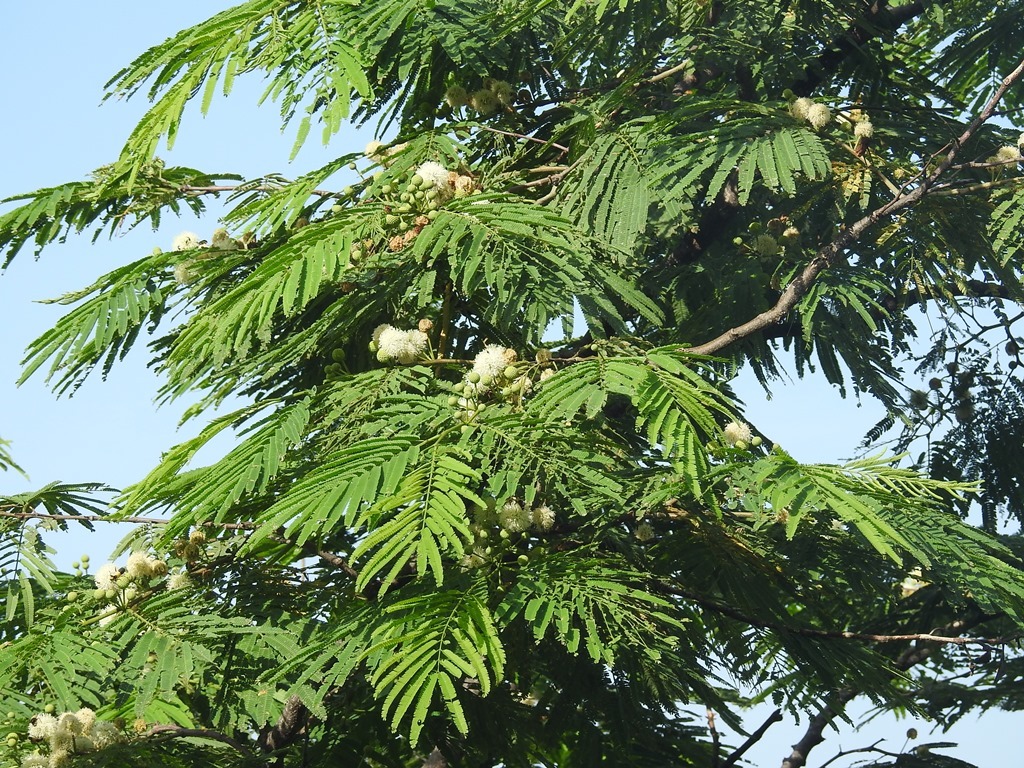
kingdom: Plantae
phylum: Tracheophyta
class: Magnoliopsida
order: Fabales
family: Fabaceae
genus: Lysiloma
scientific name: Lysiloma acapulcense
